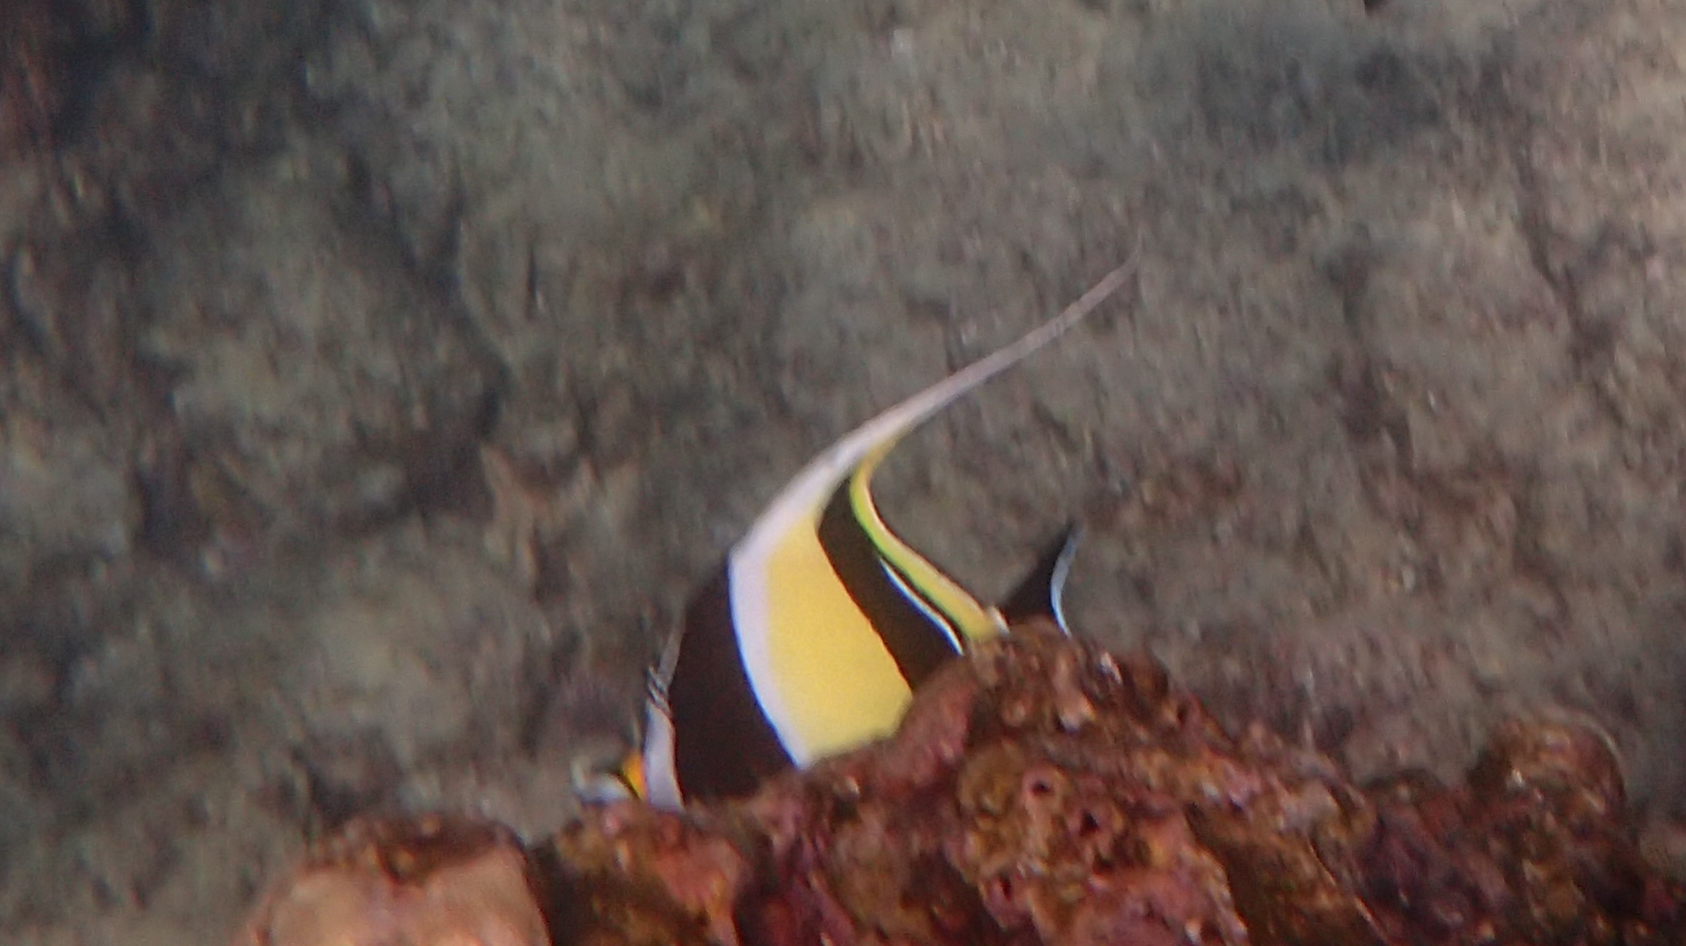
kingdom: Animalia
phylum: Chordata
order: Perciformes
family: Zanclidae
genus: Zanclus
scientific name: Zanclus cornutus
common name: Moorish idol
